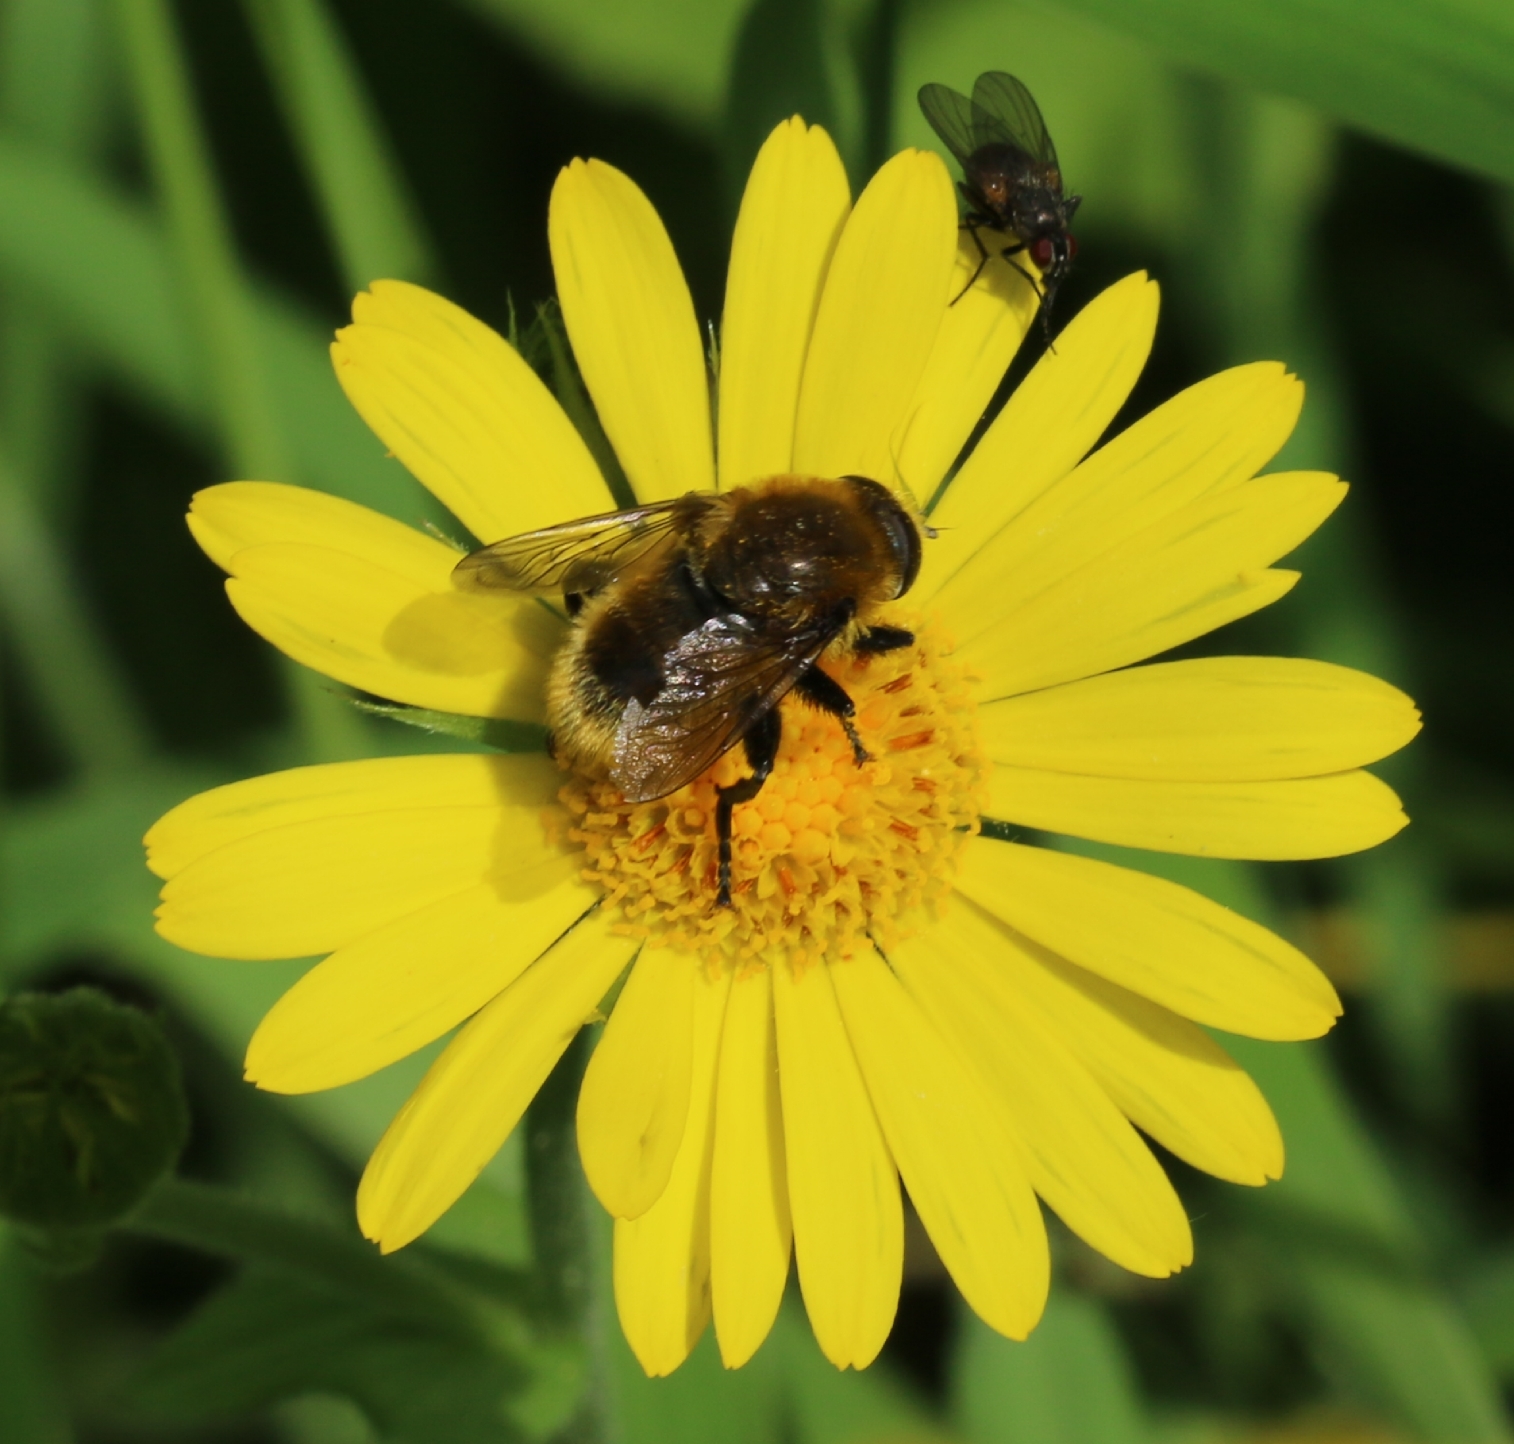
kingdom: Animalia
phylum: Arthropoda
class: Insecta
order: Diptera
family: Syrphidae
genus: Merodon
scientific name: Merodon equestris
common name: Greater bulb-fly
